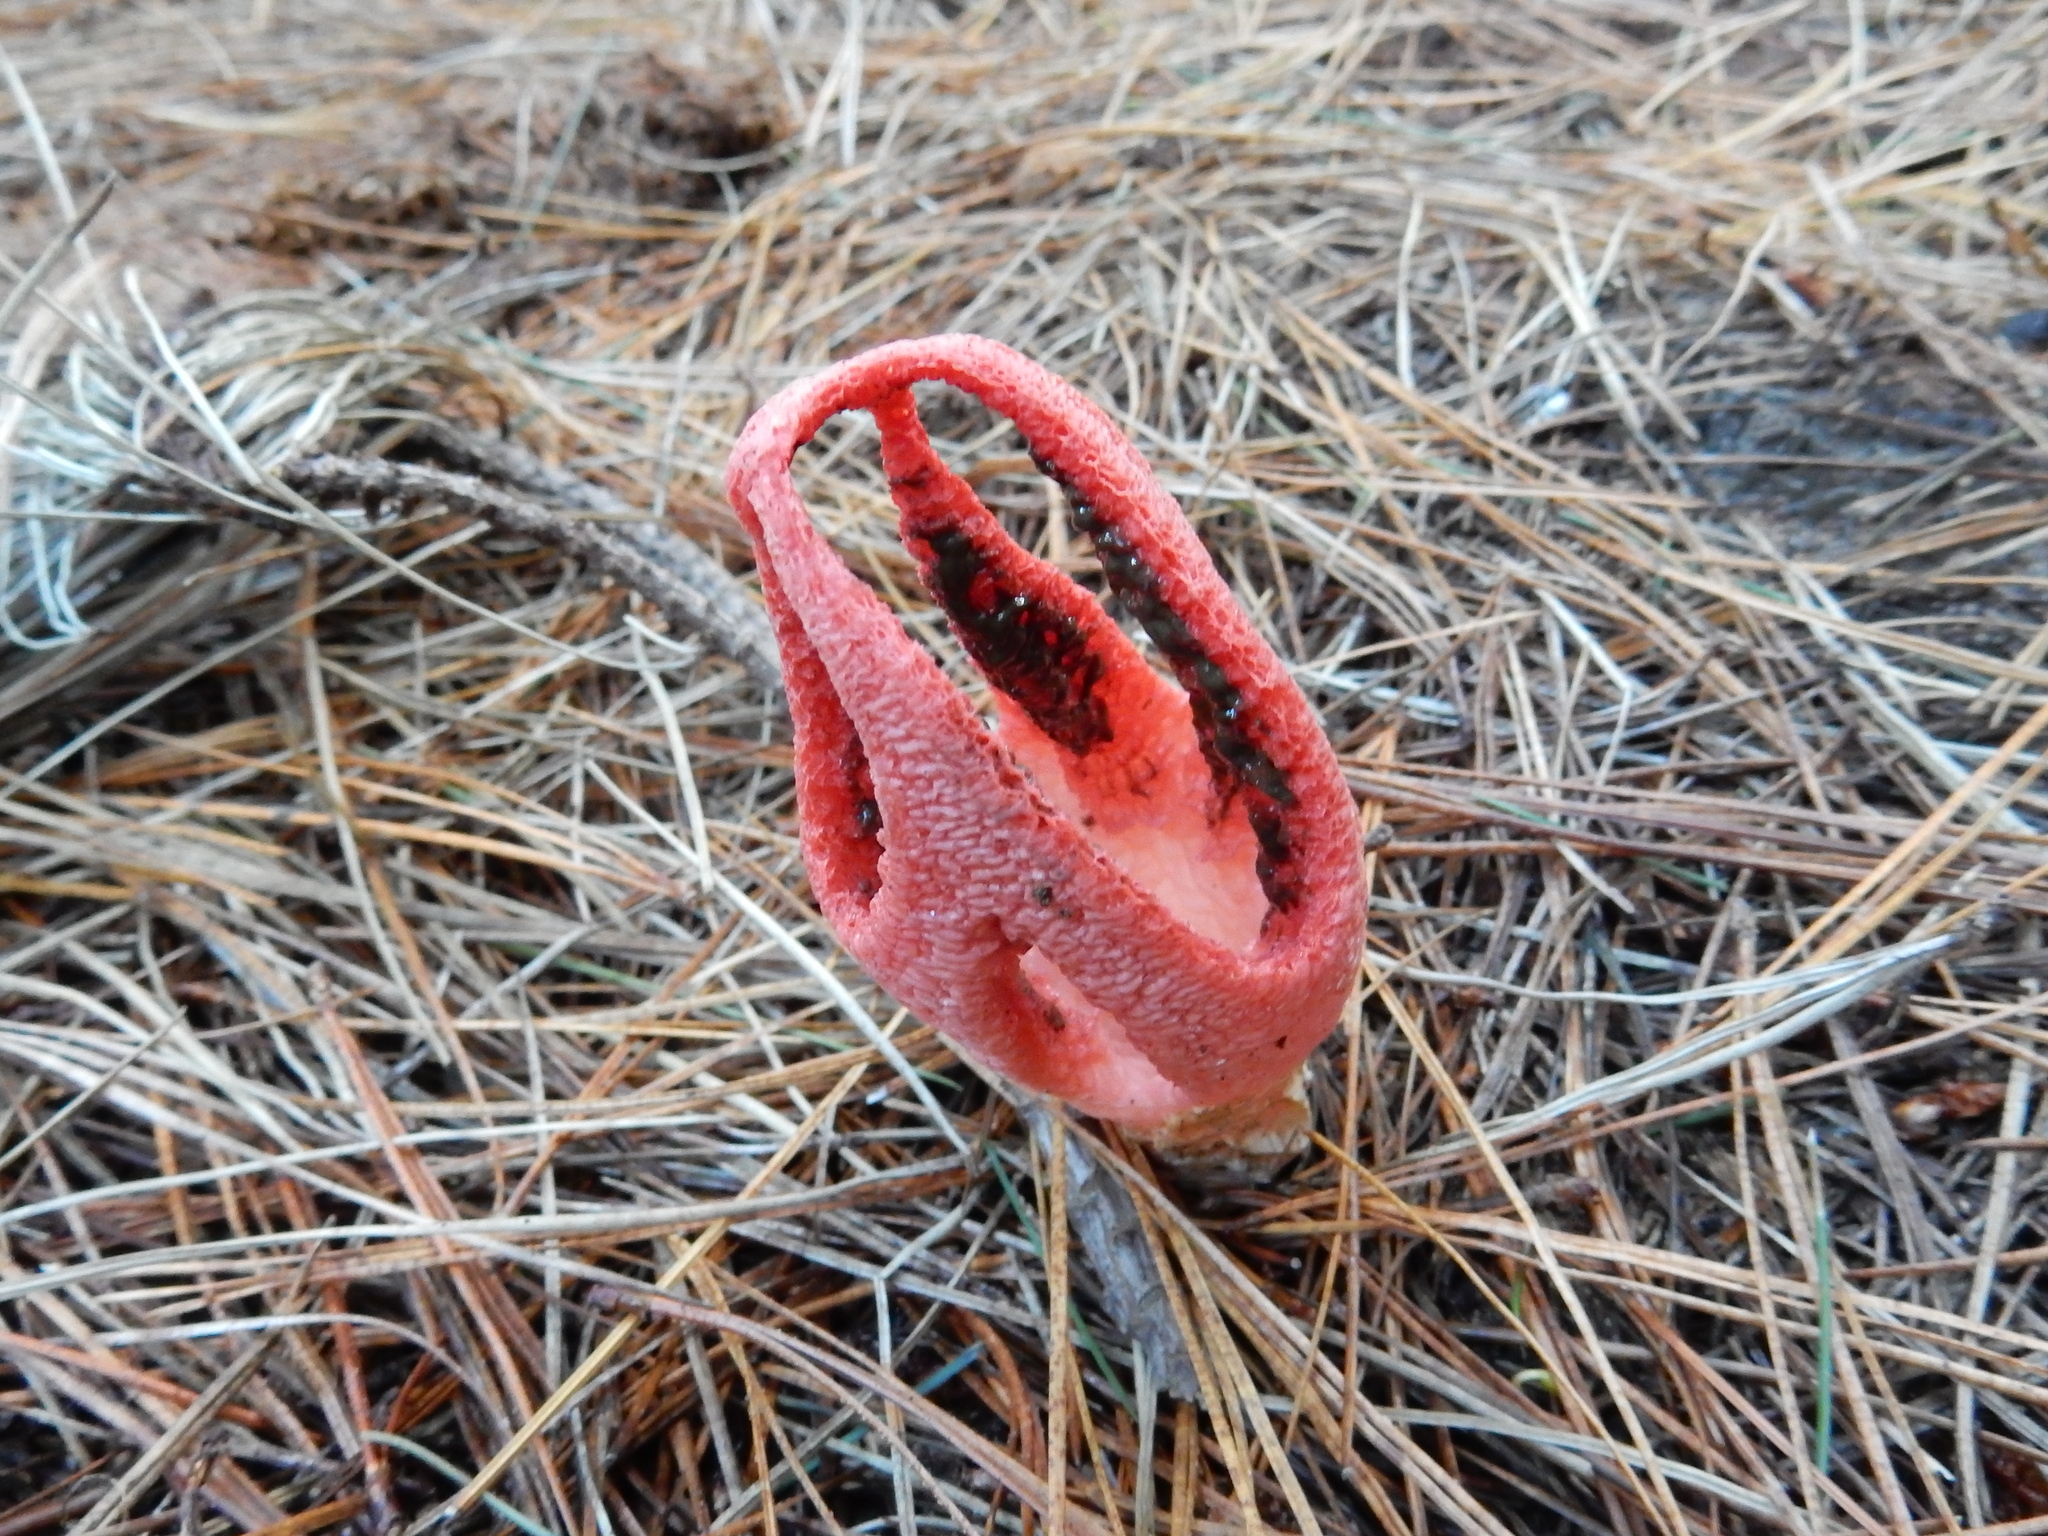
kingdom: Fungi
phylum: Basidiomycota
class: Agaricomycetes
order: Phallales
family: Phallaceae
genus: Clathrus
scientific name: Clathrus archeri
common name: Devil's fingers
